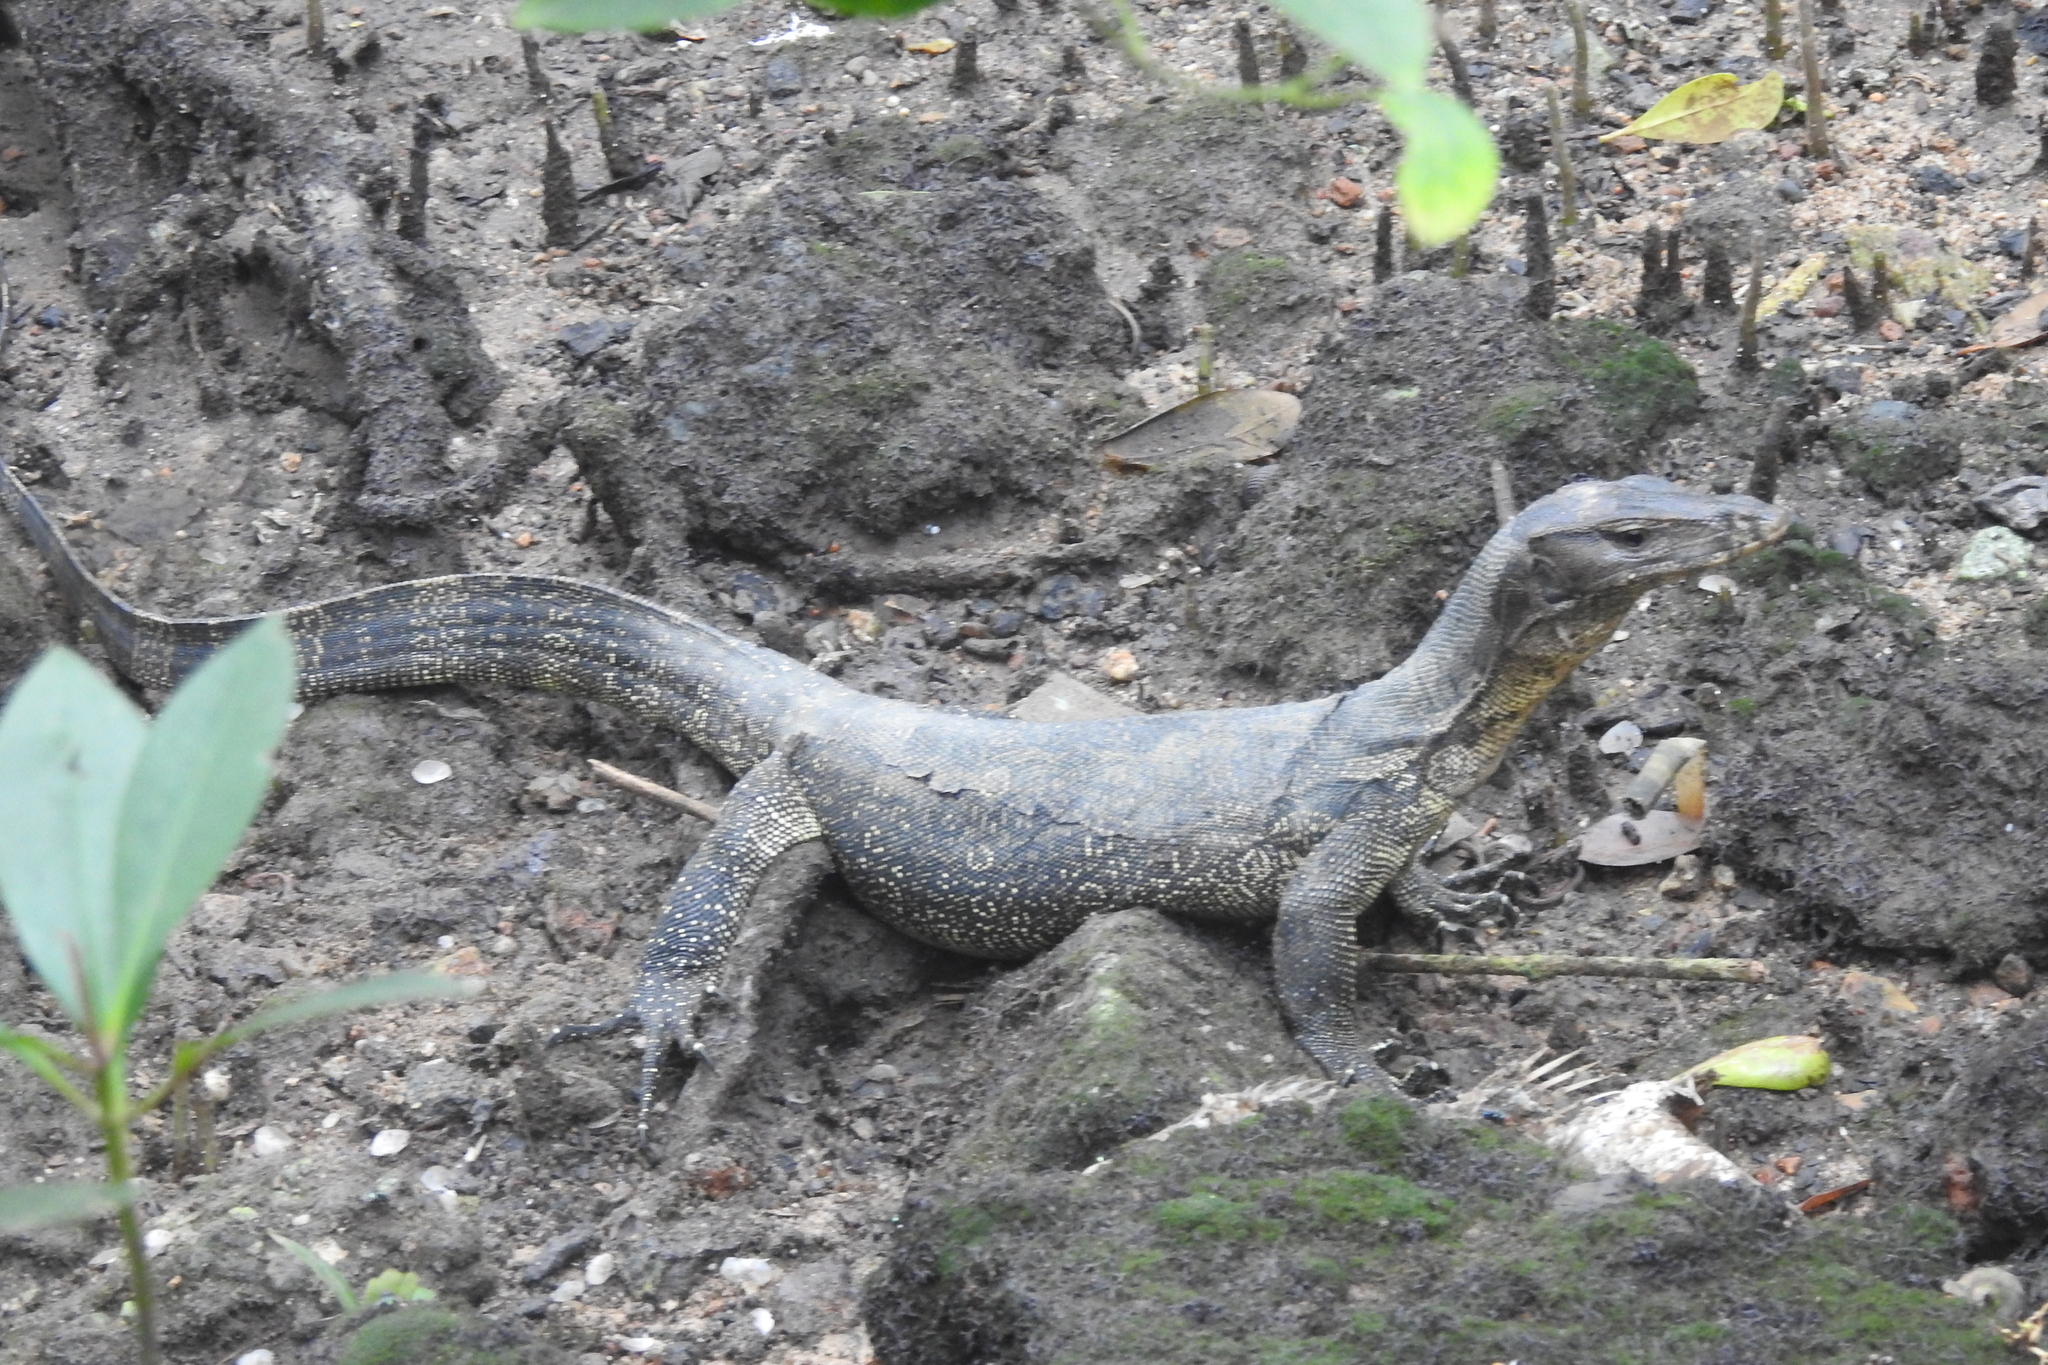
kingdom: Animalia
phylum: Chordata
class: Squamata
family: Varanidae
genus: Varanus
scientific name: Varanus salvator
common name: Common water monitor
